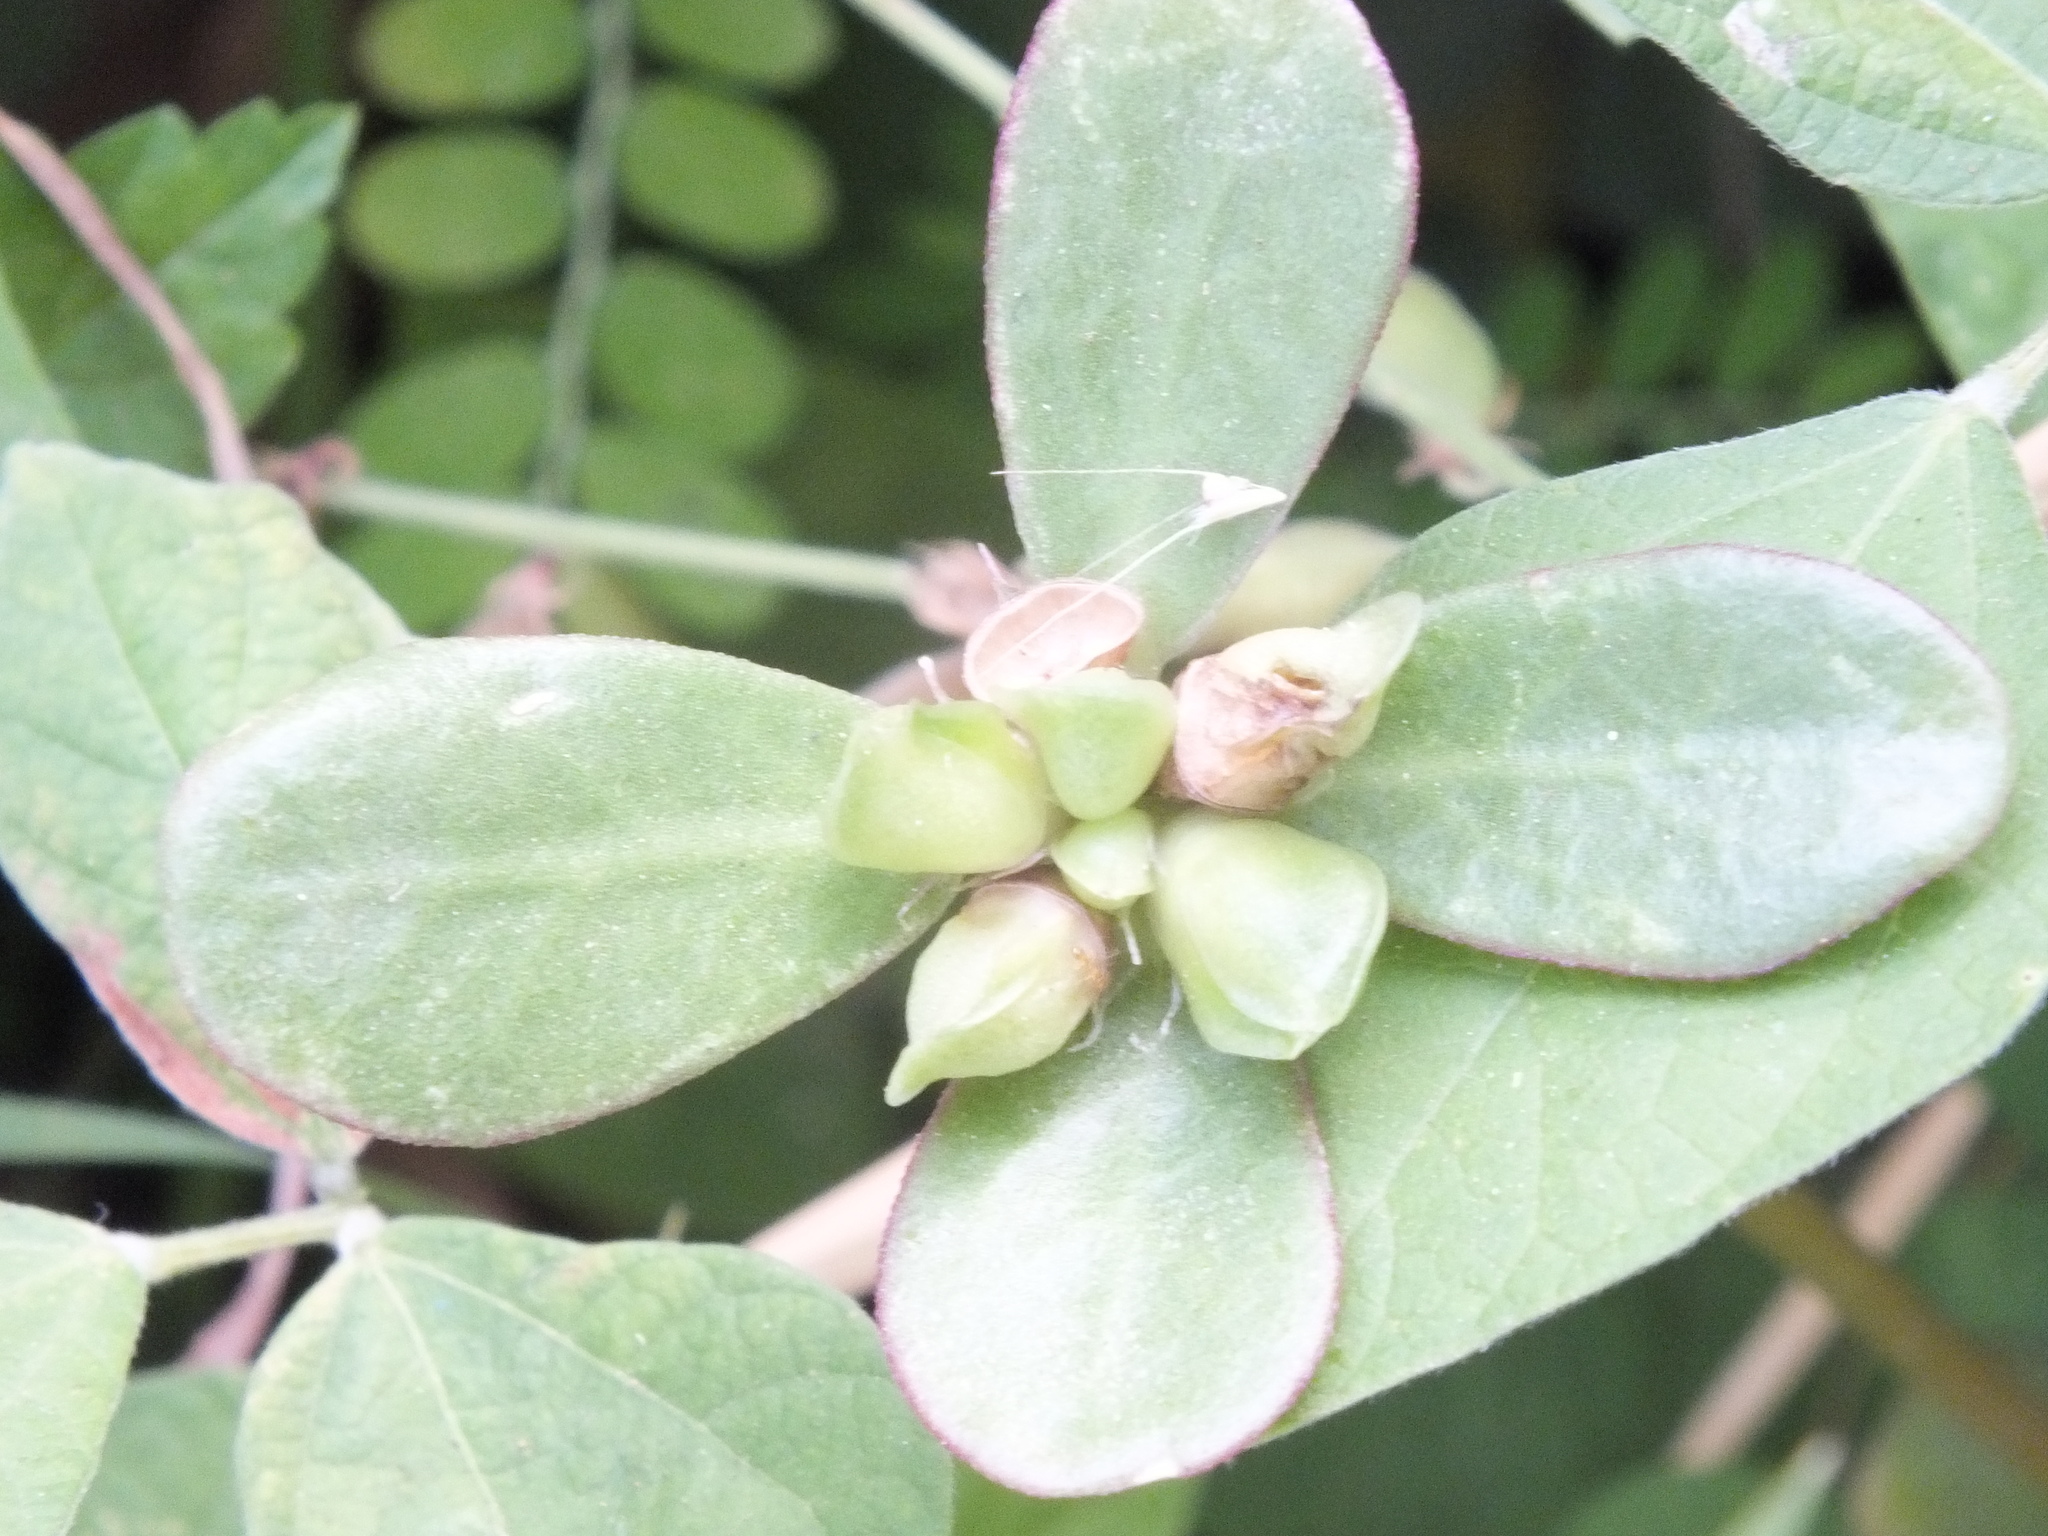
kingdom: Plantae
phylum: Tracheophyta
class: Magnoliopsida
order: Caryophyllales
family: Portulacaceae
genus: Portulaca
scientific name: Portulaca oleracea
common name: Common purslane
